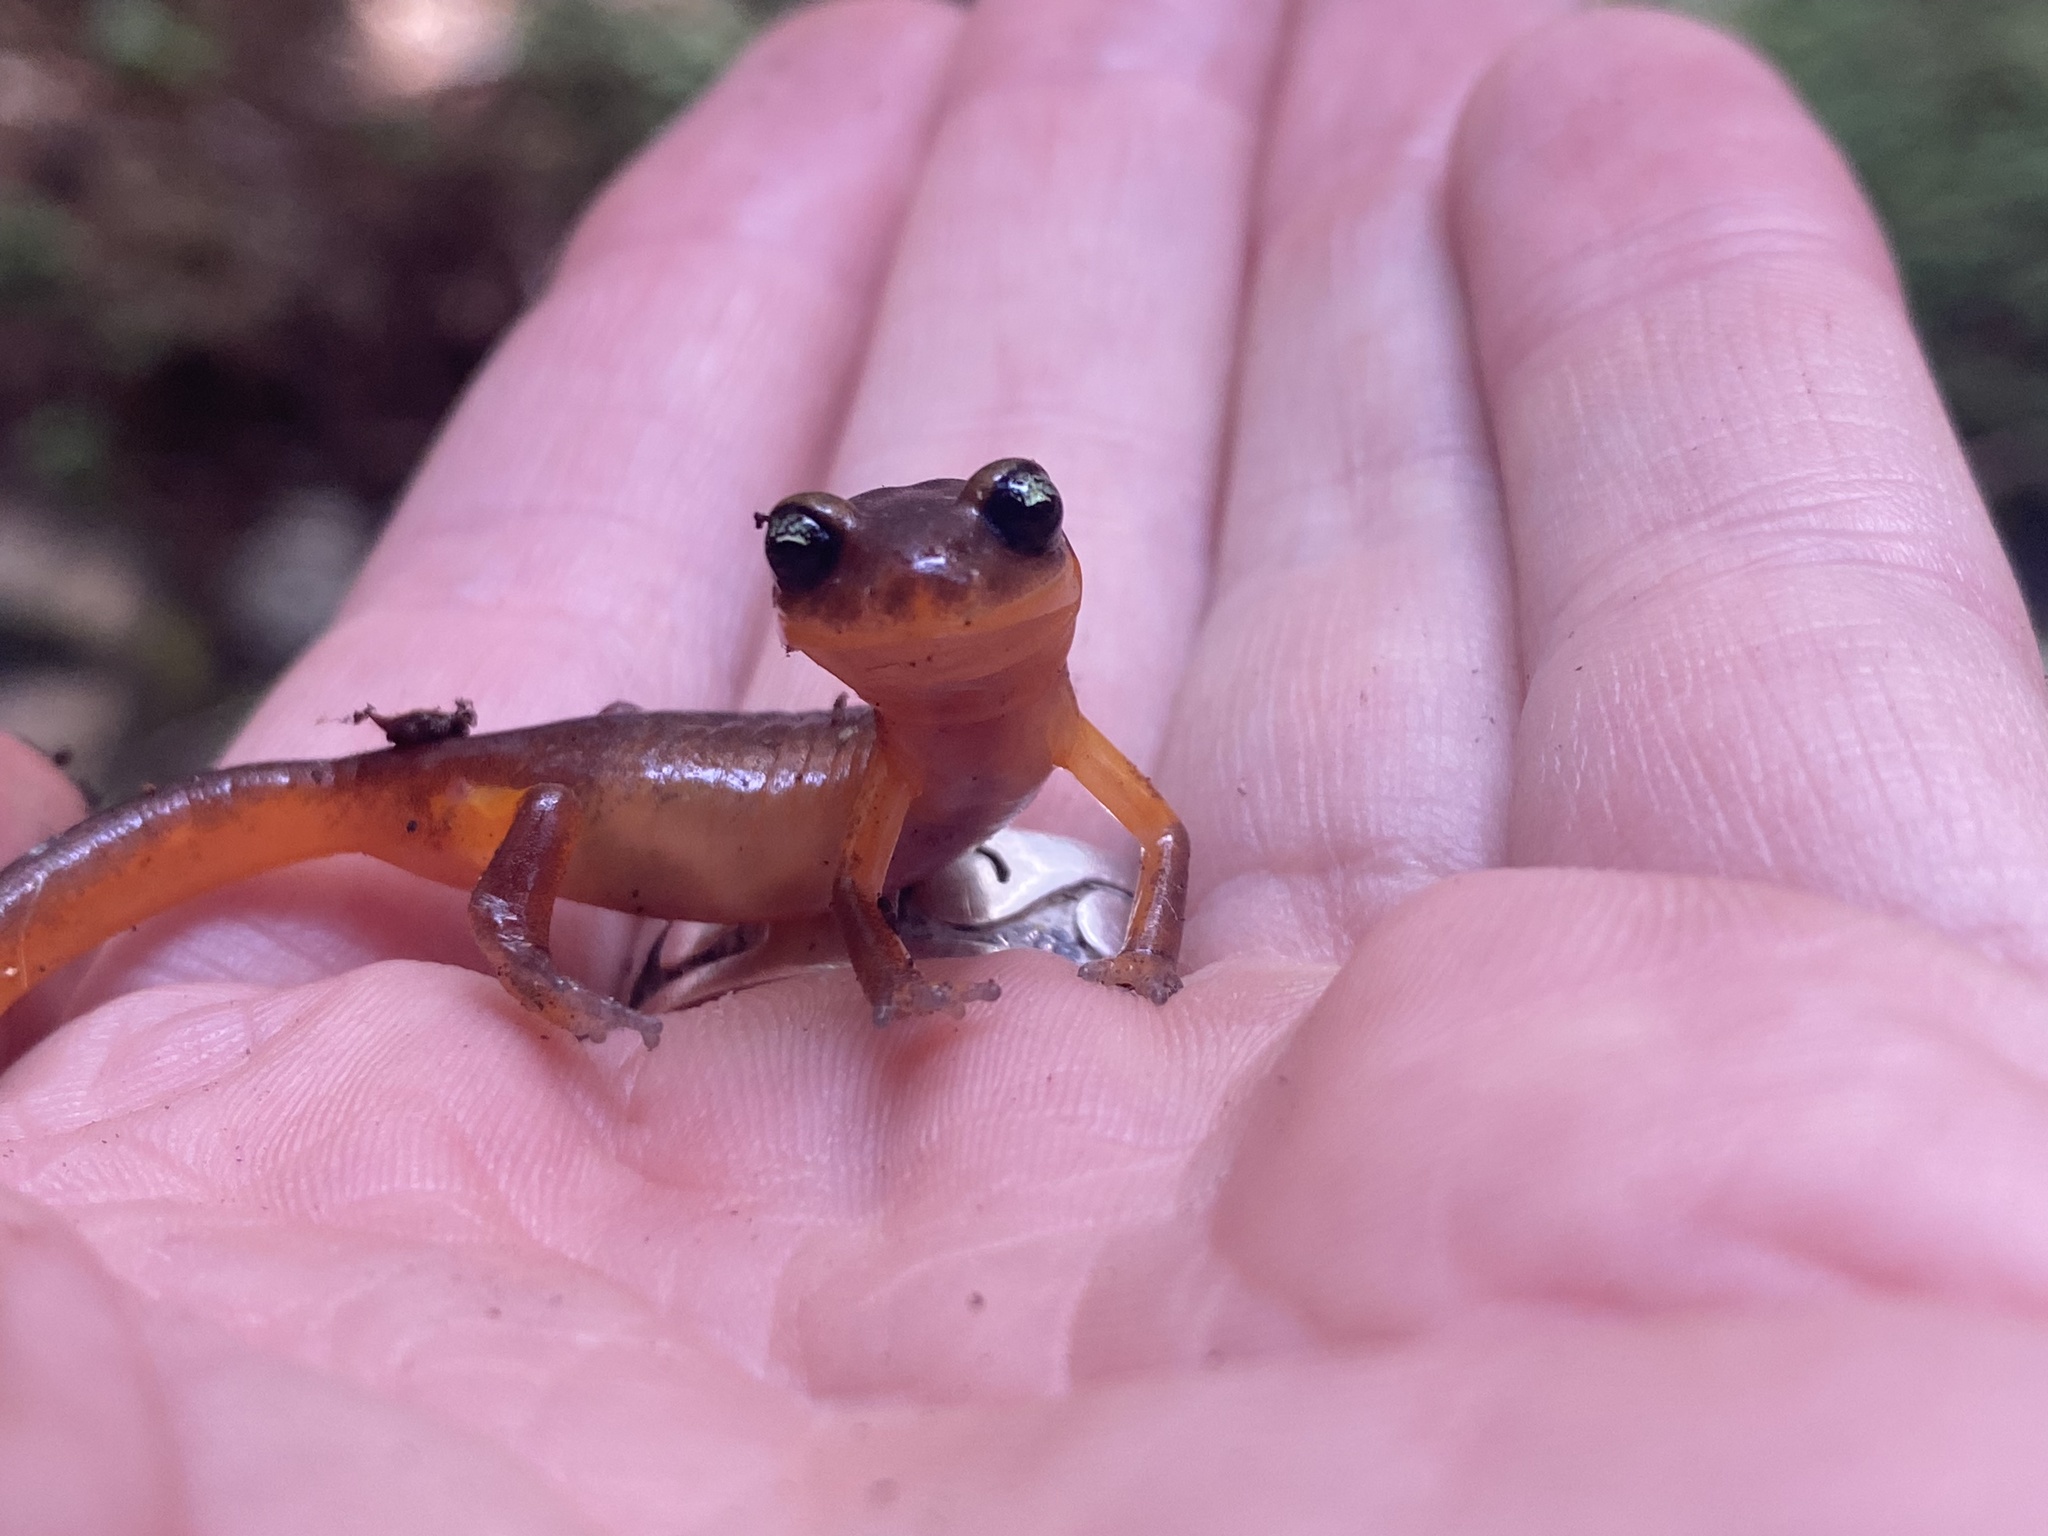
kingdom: Animalia
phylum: Chordata
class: Amphibia
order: Caudata
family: Plethodontidae
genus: Ensatina
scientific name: Ensatina eschscholtzii
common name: Ensatina
